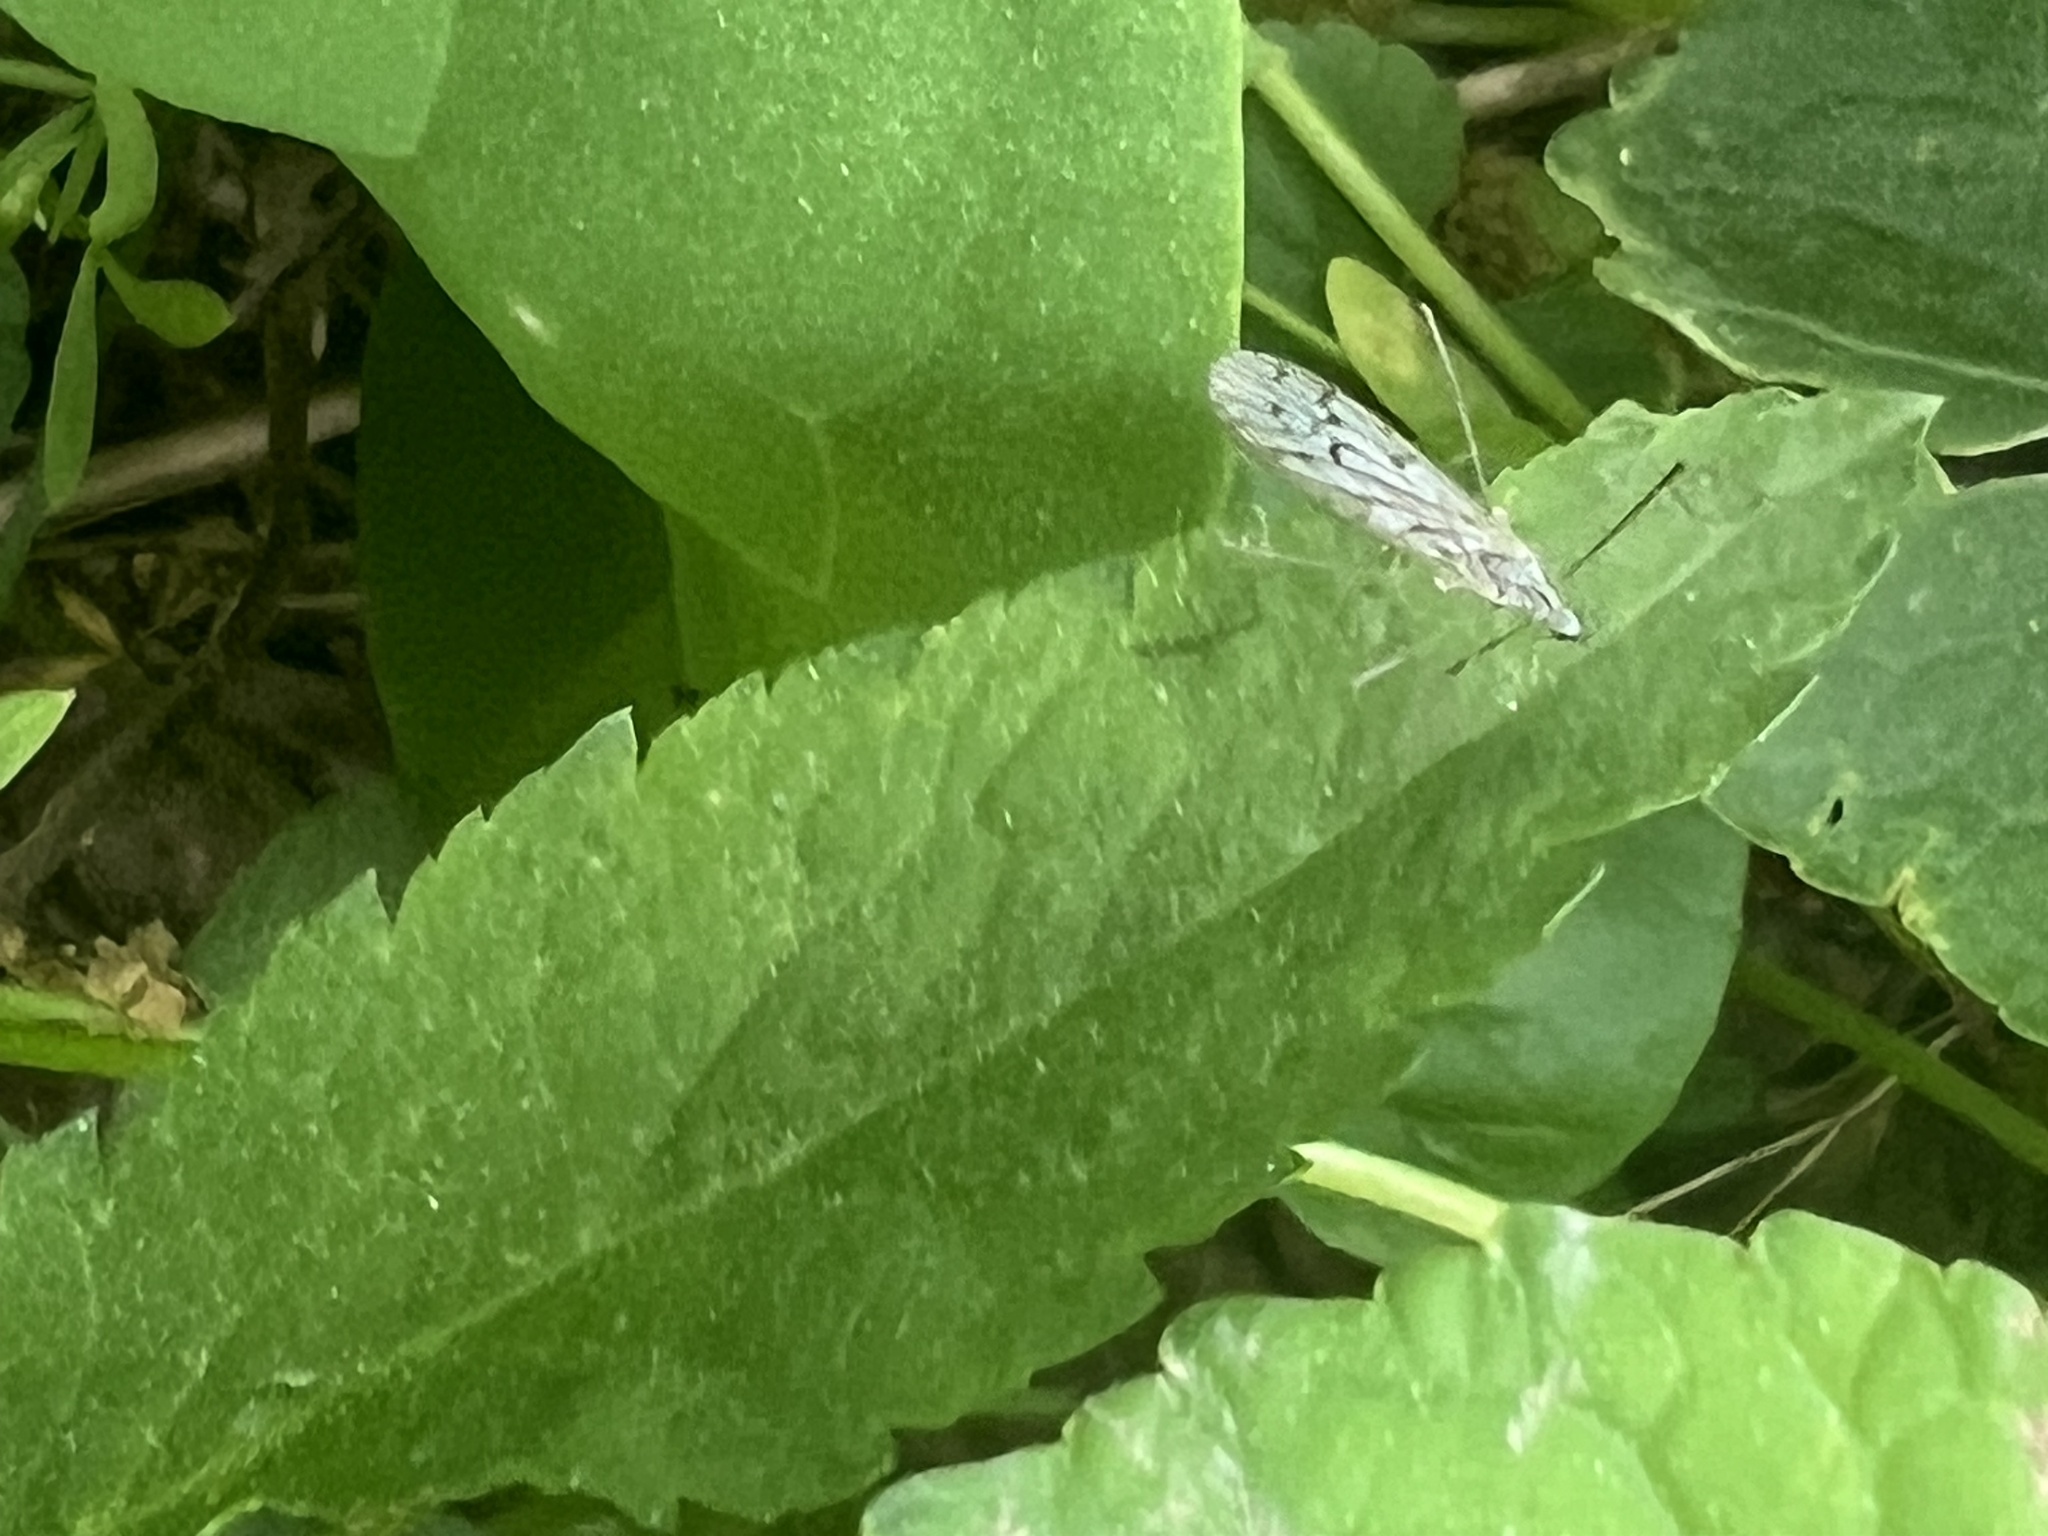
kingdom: Animalia
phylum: Arthropoda
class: Insecta
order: Diptera
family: Limoniidae
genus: Symplecta
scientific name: Symplecta cana
